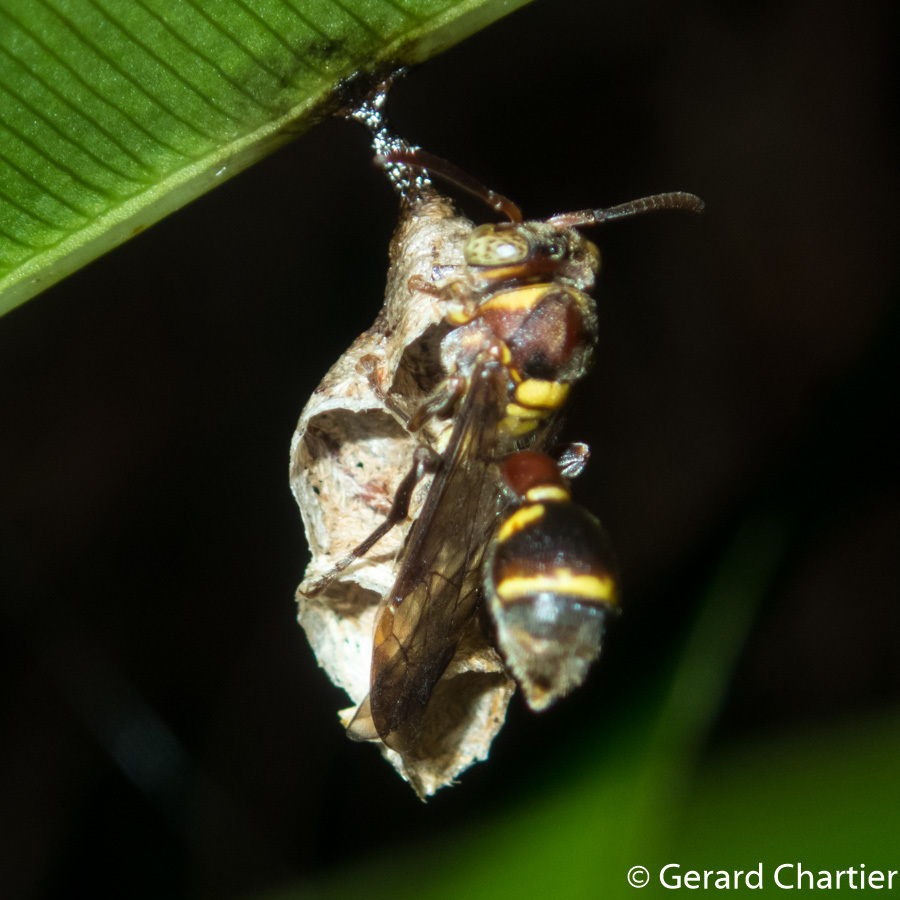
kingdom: Animalia
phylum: Arthropoda
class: Insecta
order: Hymenoptera
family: Vespidae
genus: Ropalidia
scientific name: Ropalidia stigma
